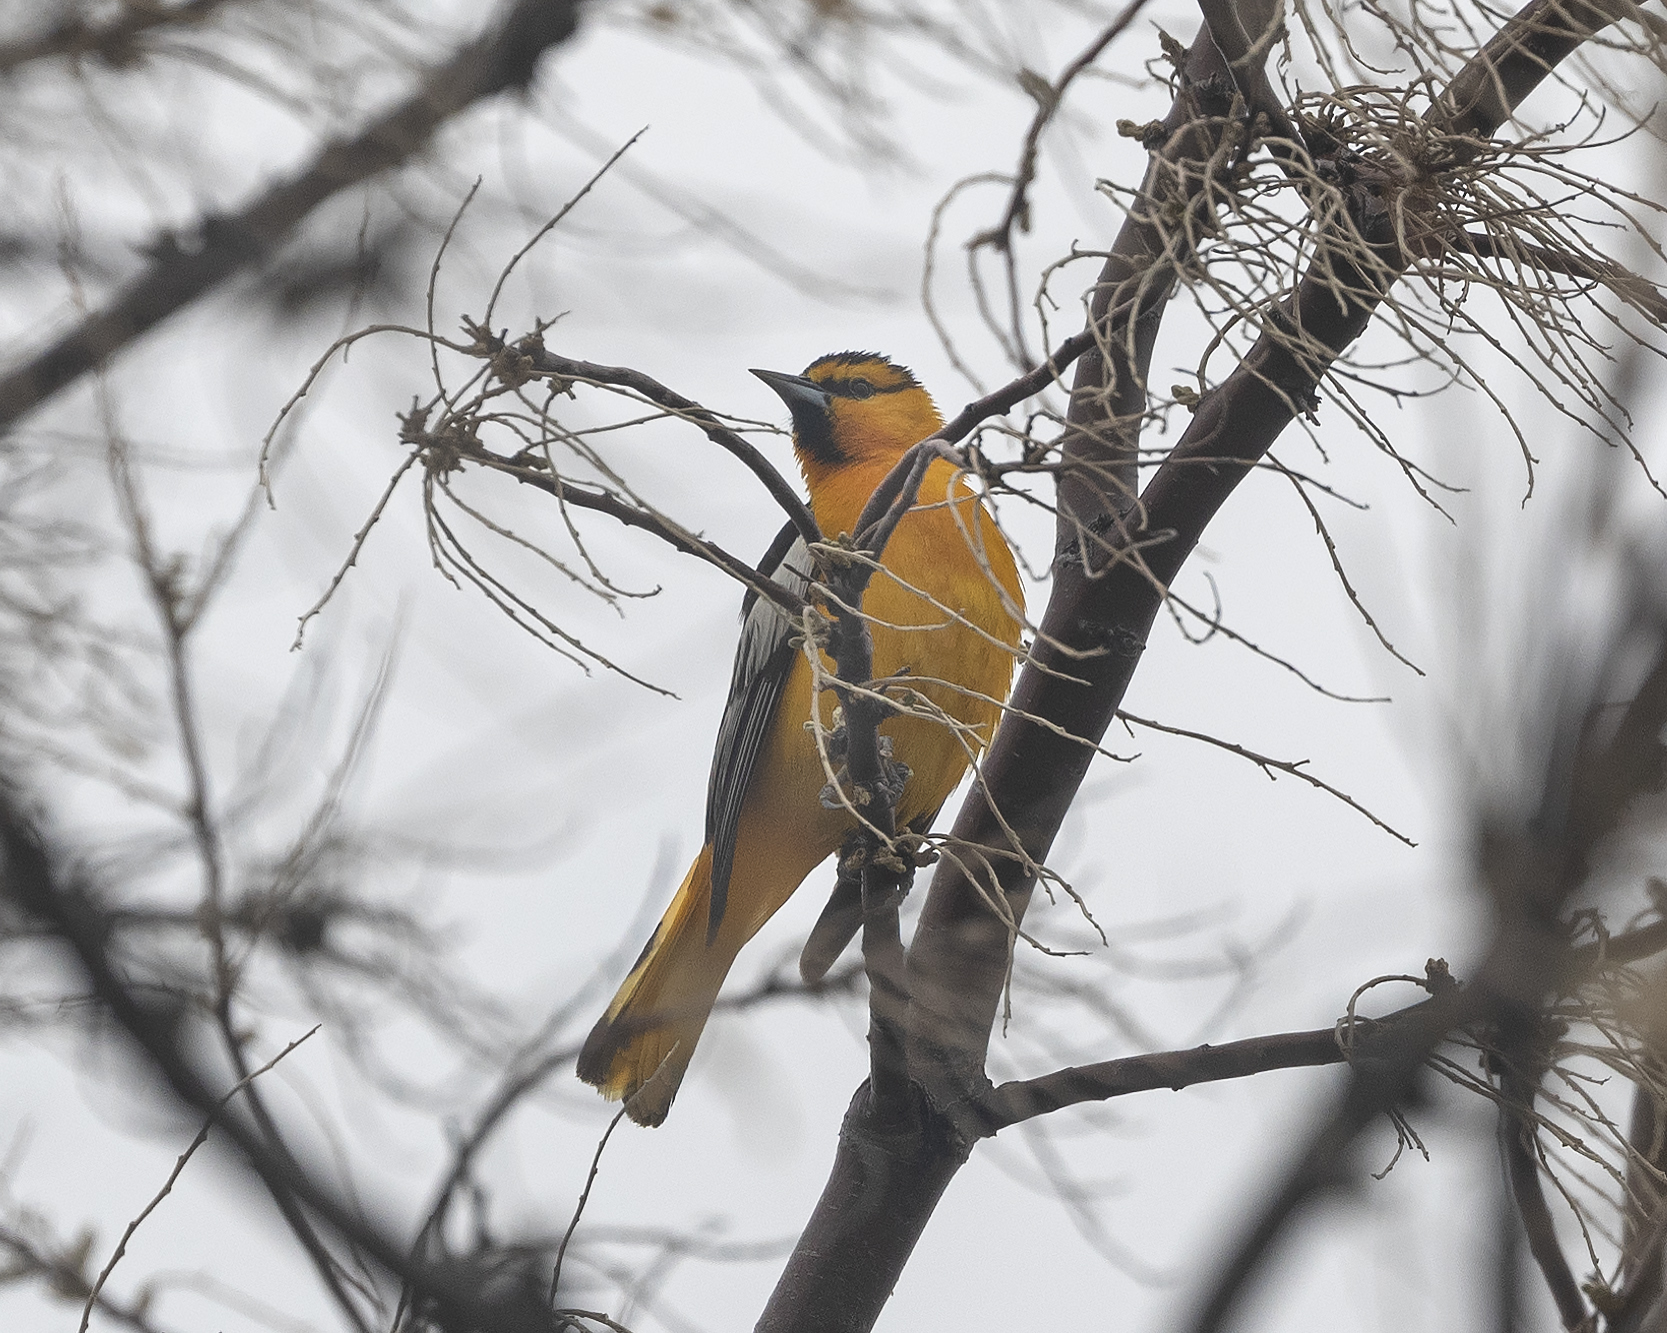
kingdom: Animalia
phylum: Chordata
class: Aves
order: Passeriformes
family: Icteridae
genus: Icterus
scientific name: Icterus bullockii
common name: Bullock's oriole
